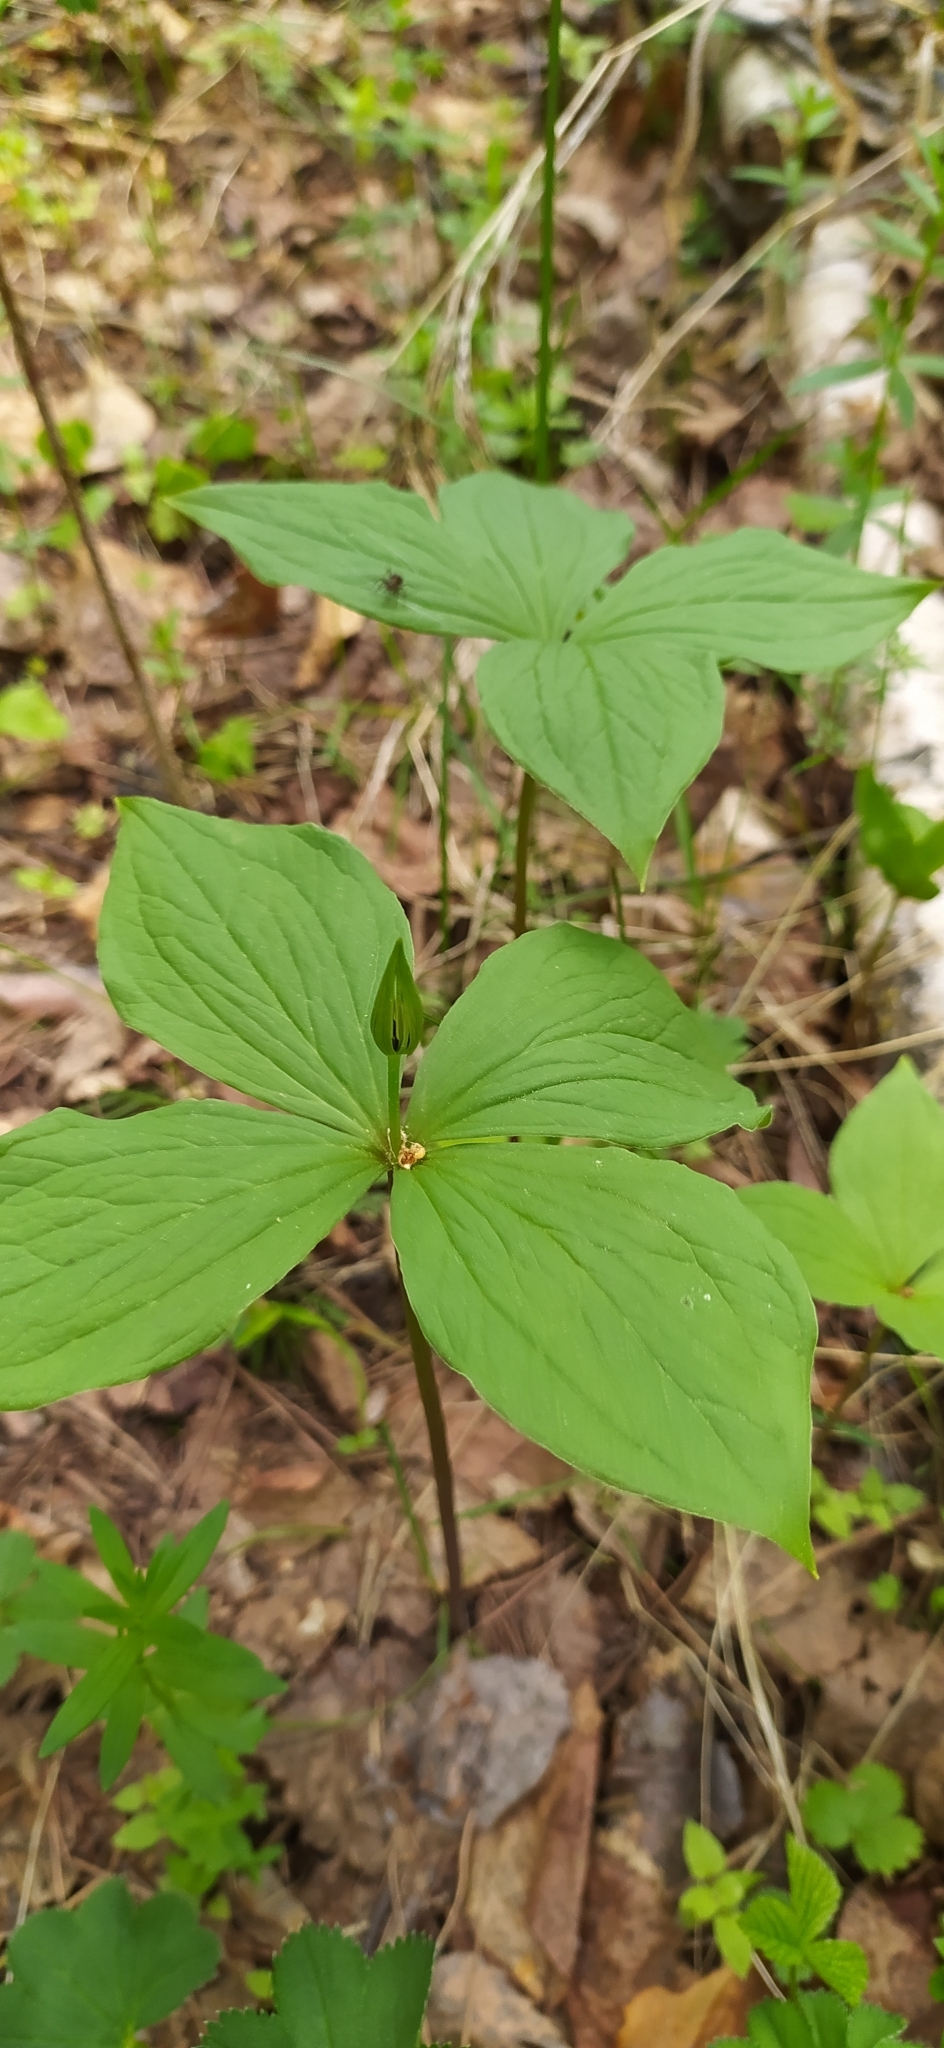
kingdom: Plantae
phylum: Tracheophyta
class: Liliopsida
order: Liliales
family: Melanthiaceae
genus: Paris
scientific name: Paris quadrifolia
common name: Herb-paris
